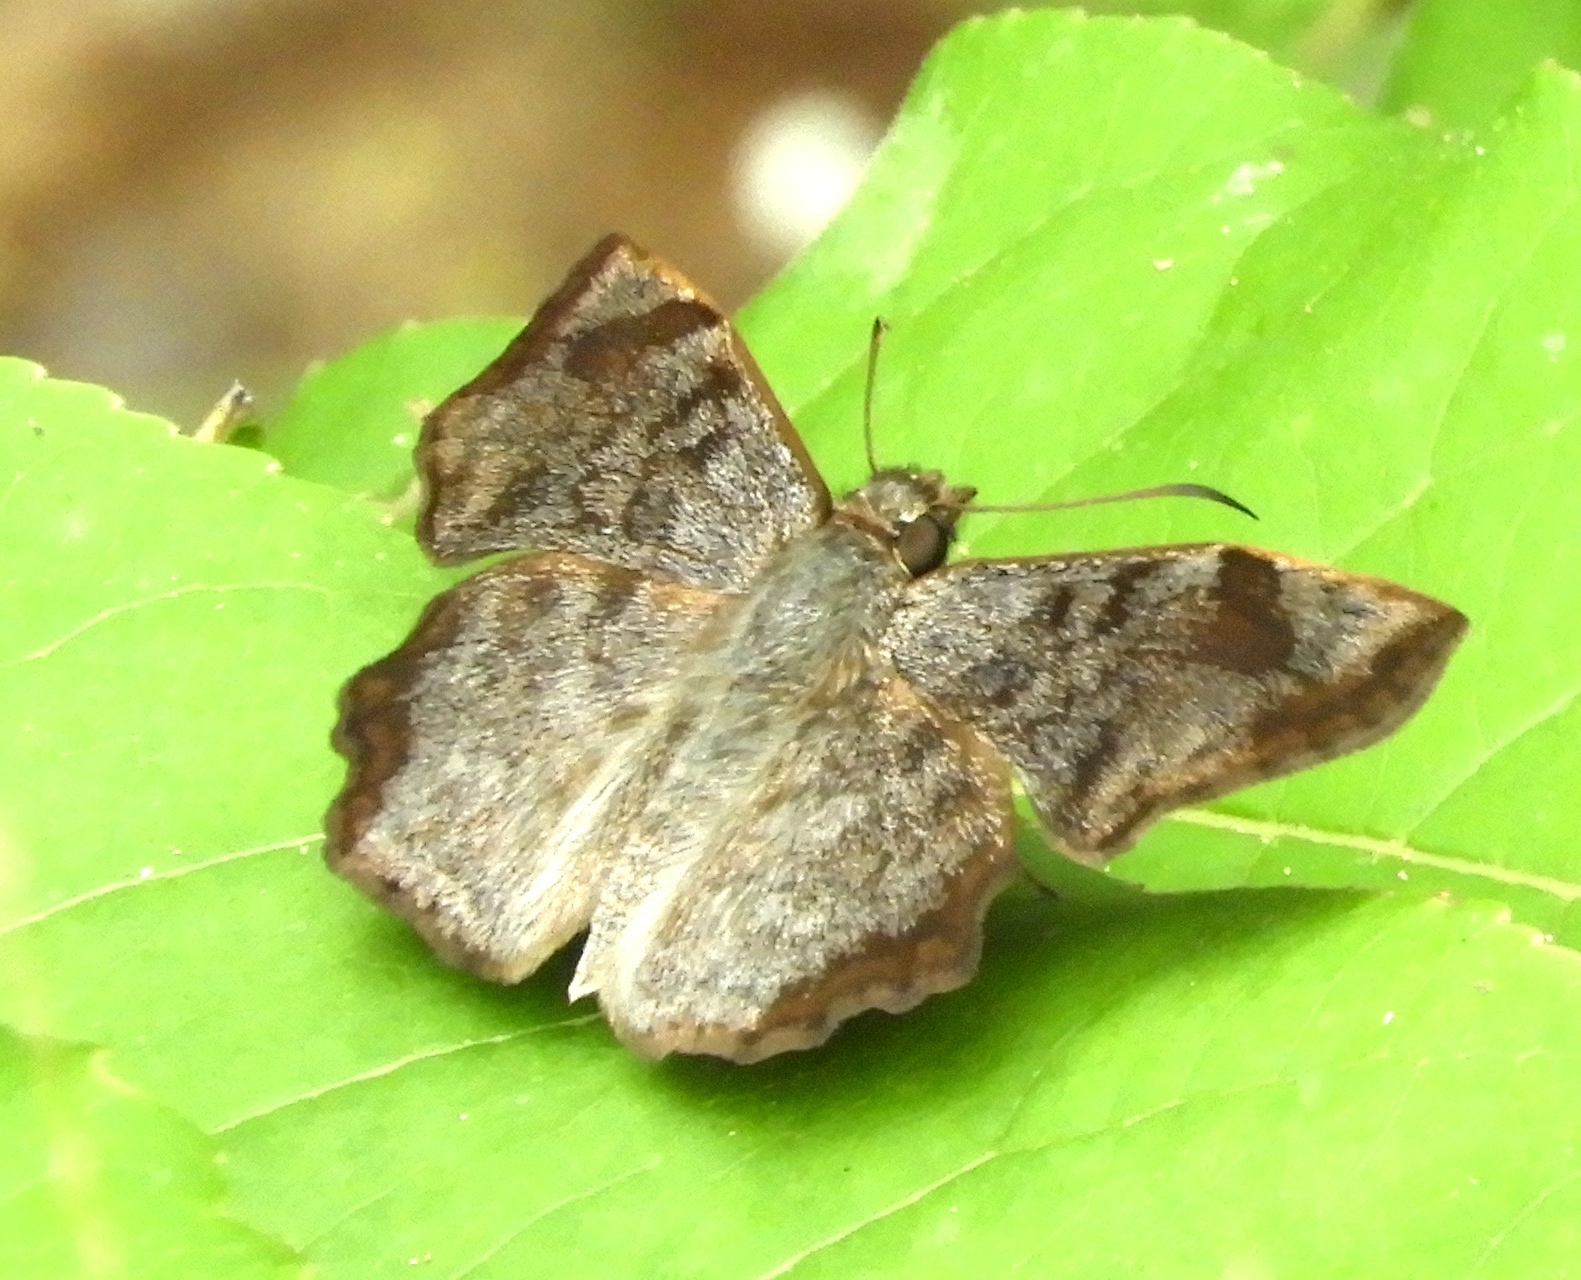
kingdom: Animalia
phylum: Arthropoda
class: Insecta
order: Lepidoptera
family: Hesperiidae
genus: Antigonus
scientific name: Antigonus erosus
